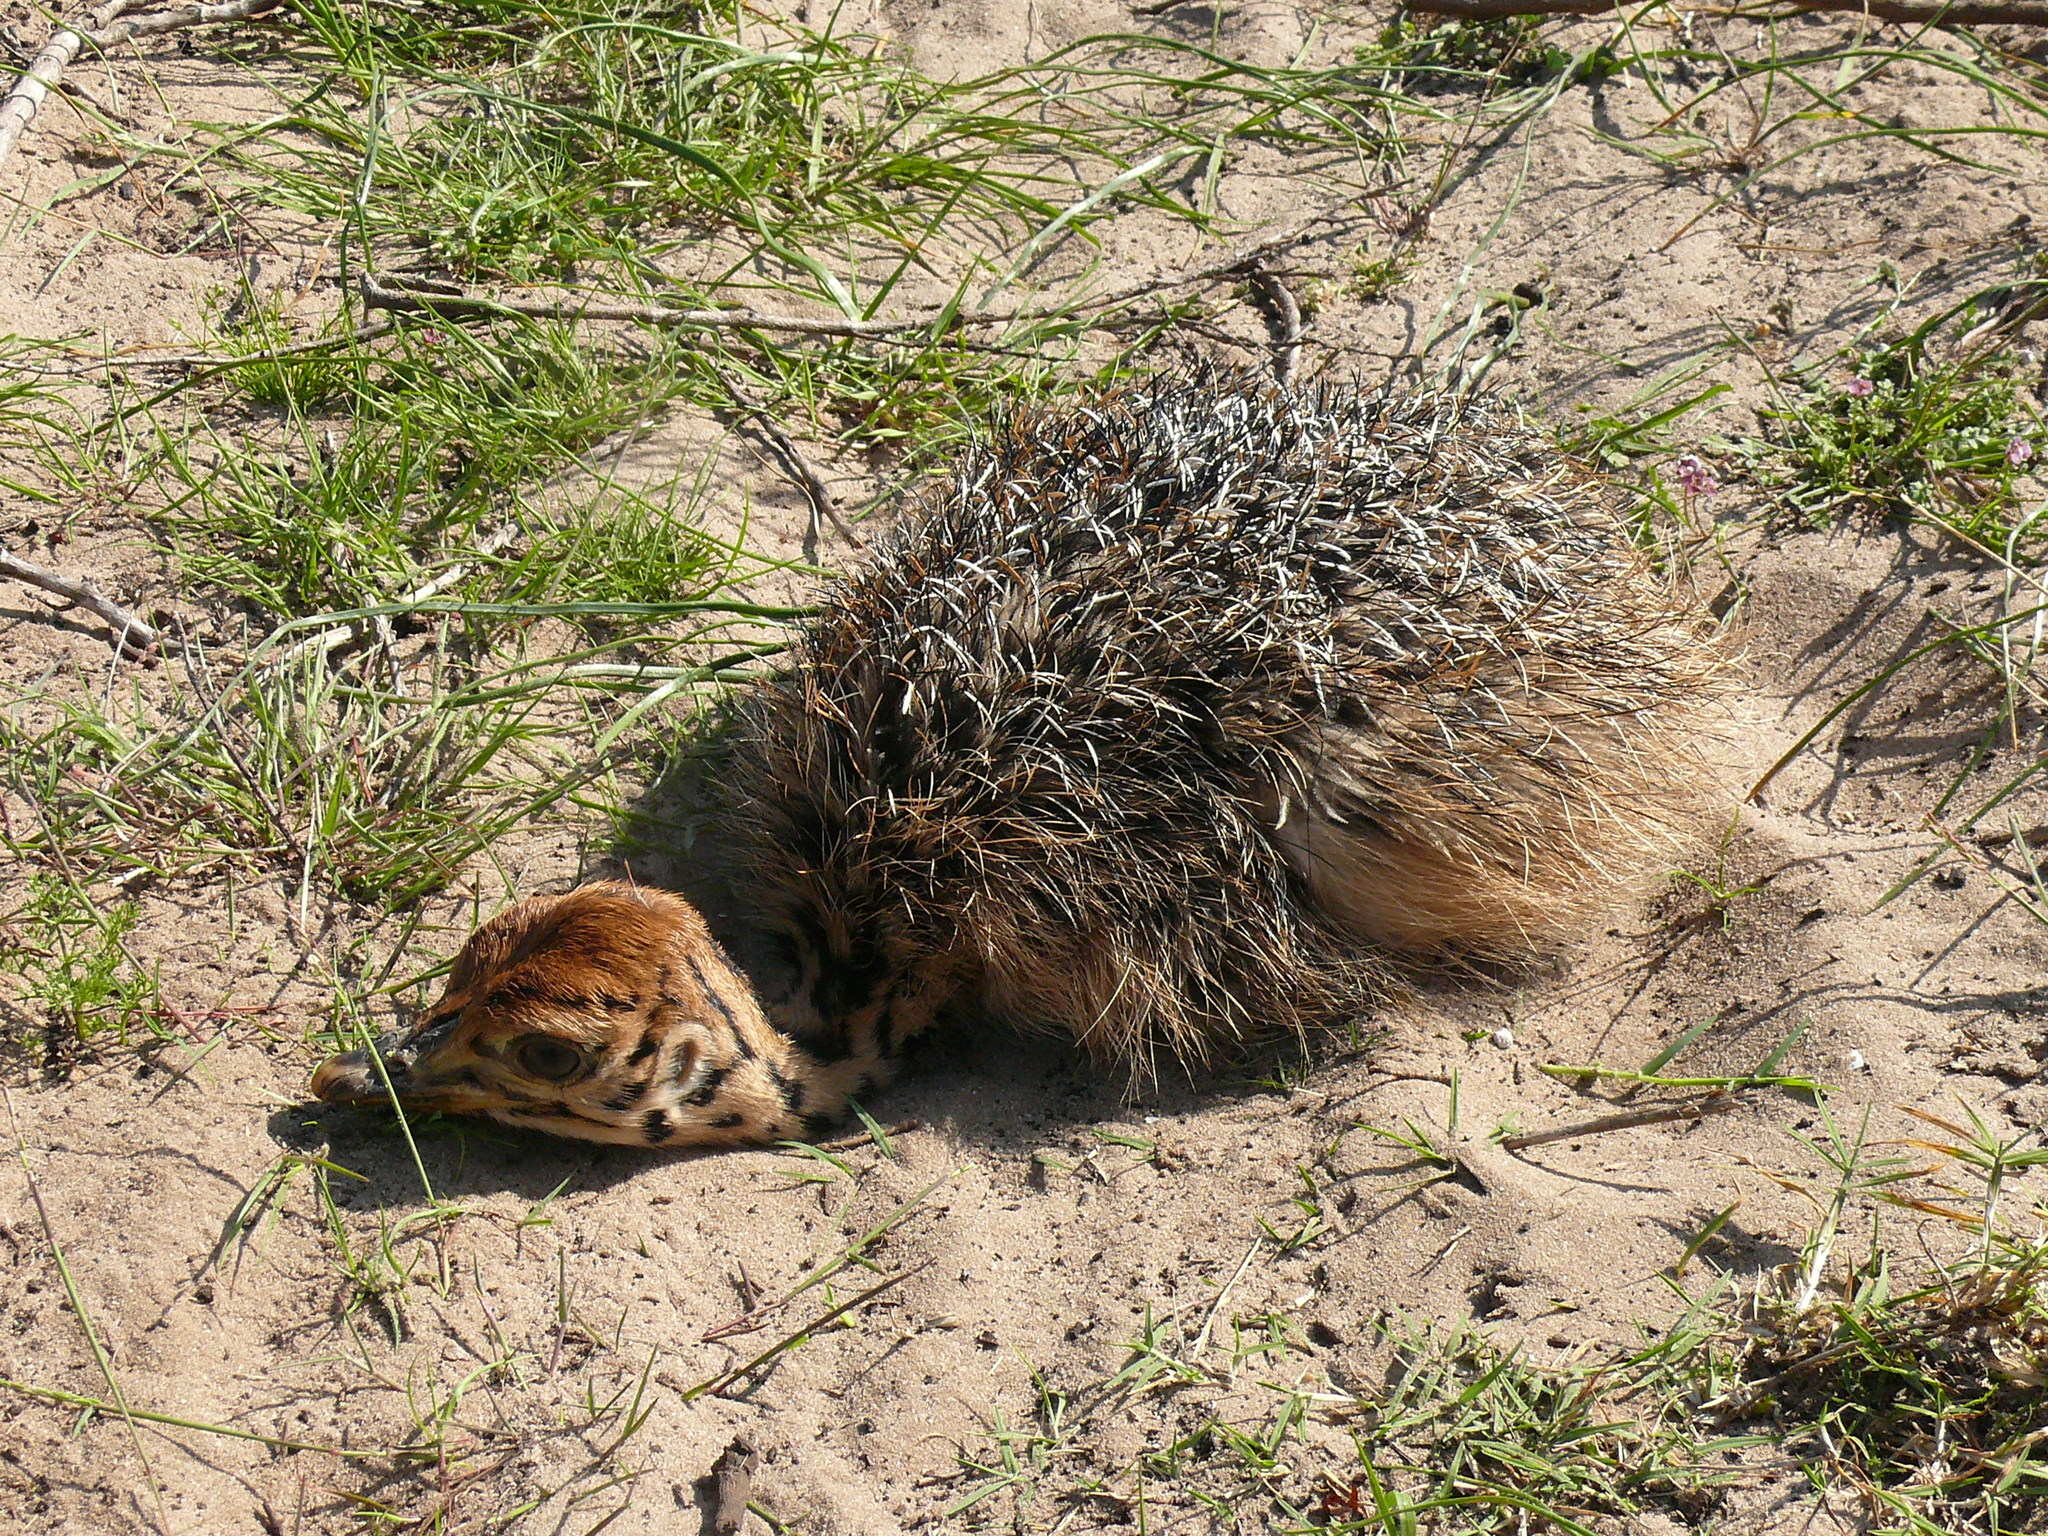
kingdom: Animalia
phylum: Chordata
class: Aves
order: Struthioniformes
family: Struthionidae
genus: Struthio
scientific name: Struthio camelus
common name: Common ostrich
